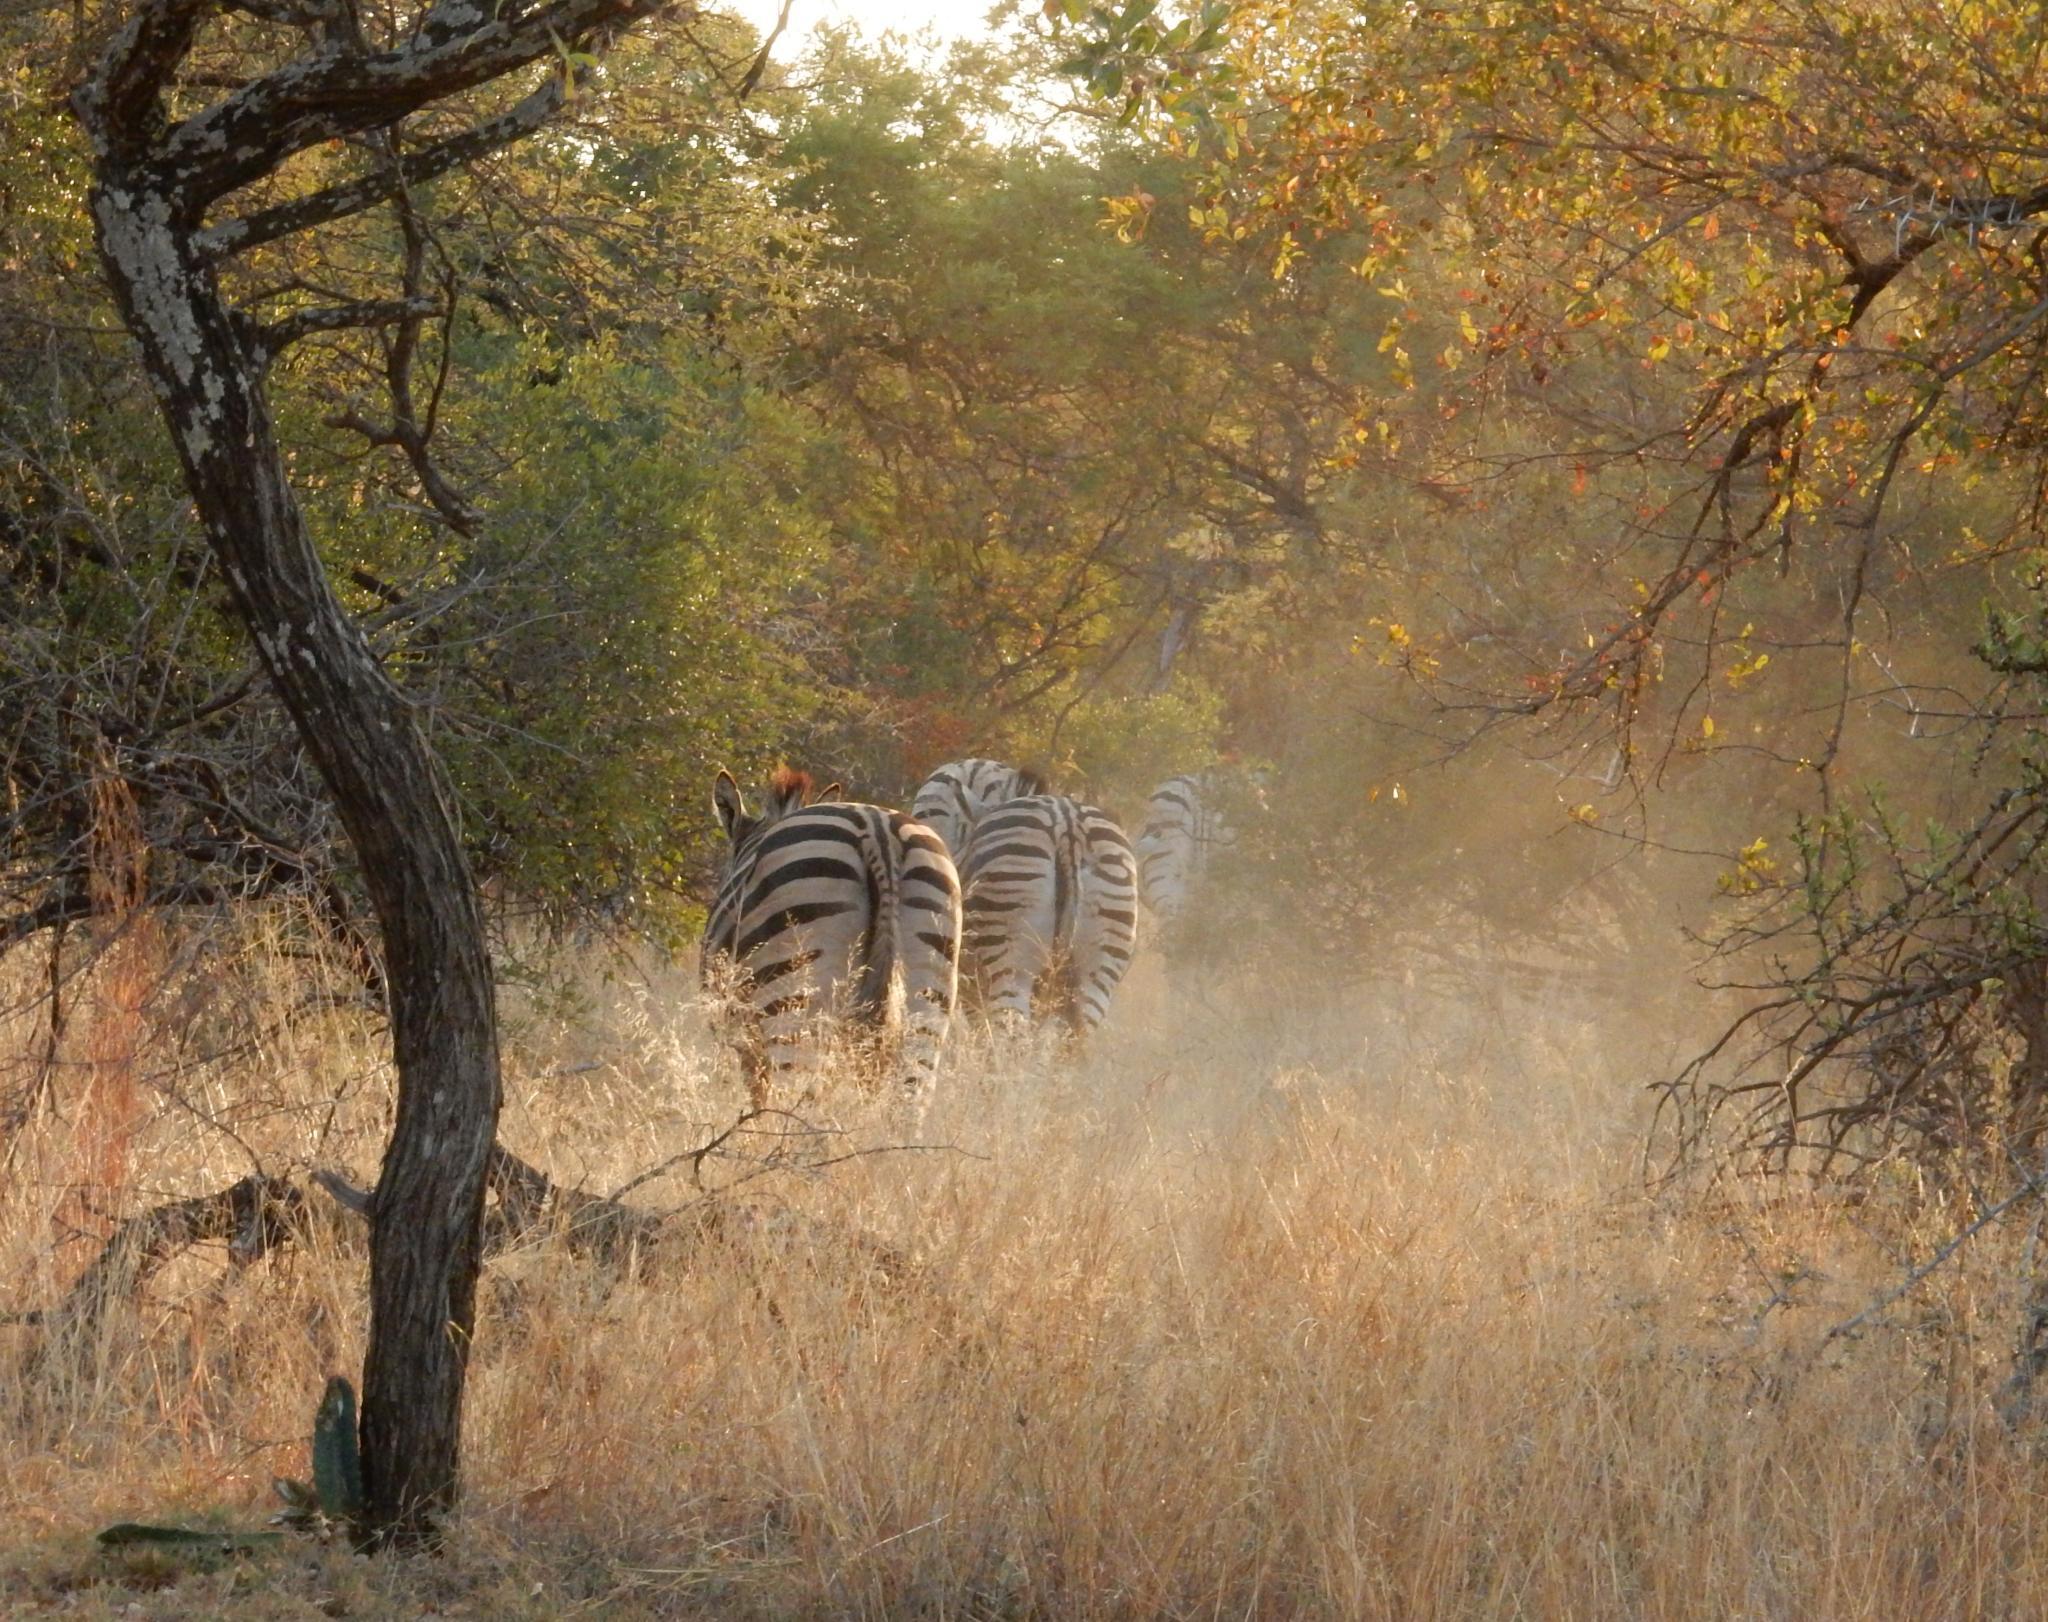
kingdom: Animalia
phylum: Chordata
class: Mammalia
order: Perissodactyla
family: Equidae
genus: Equus
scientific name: Equus quagga
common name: Plains zebra
